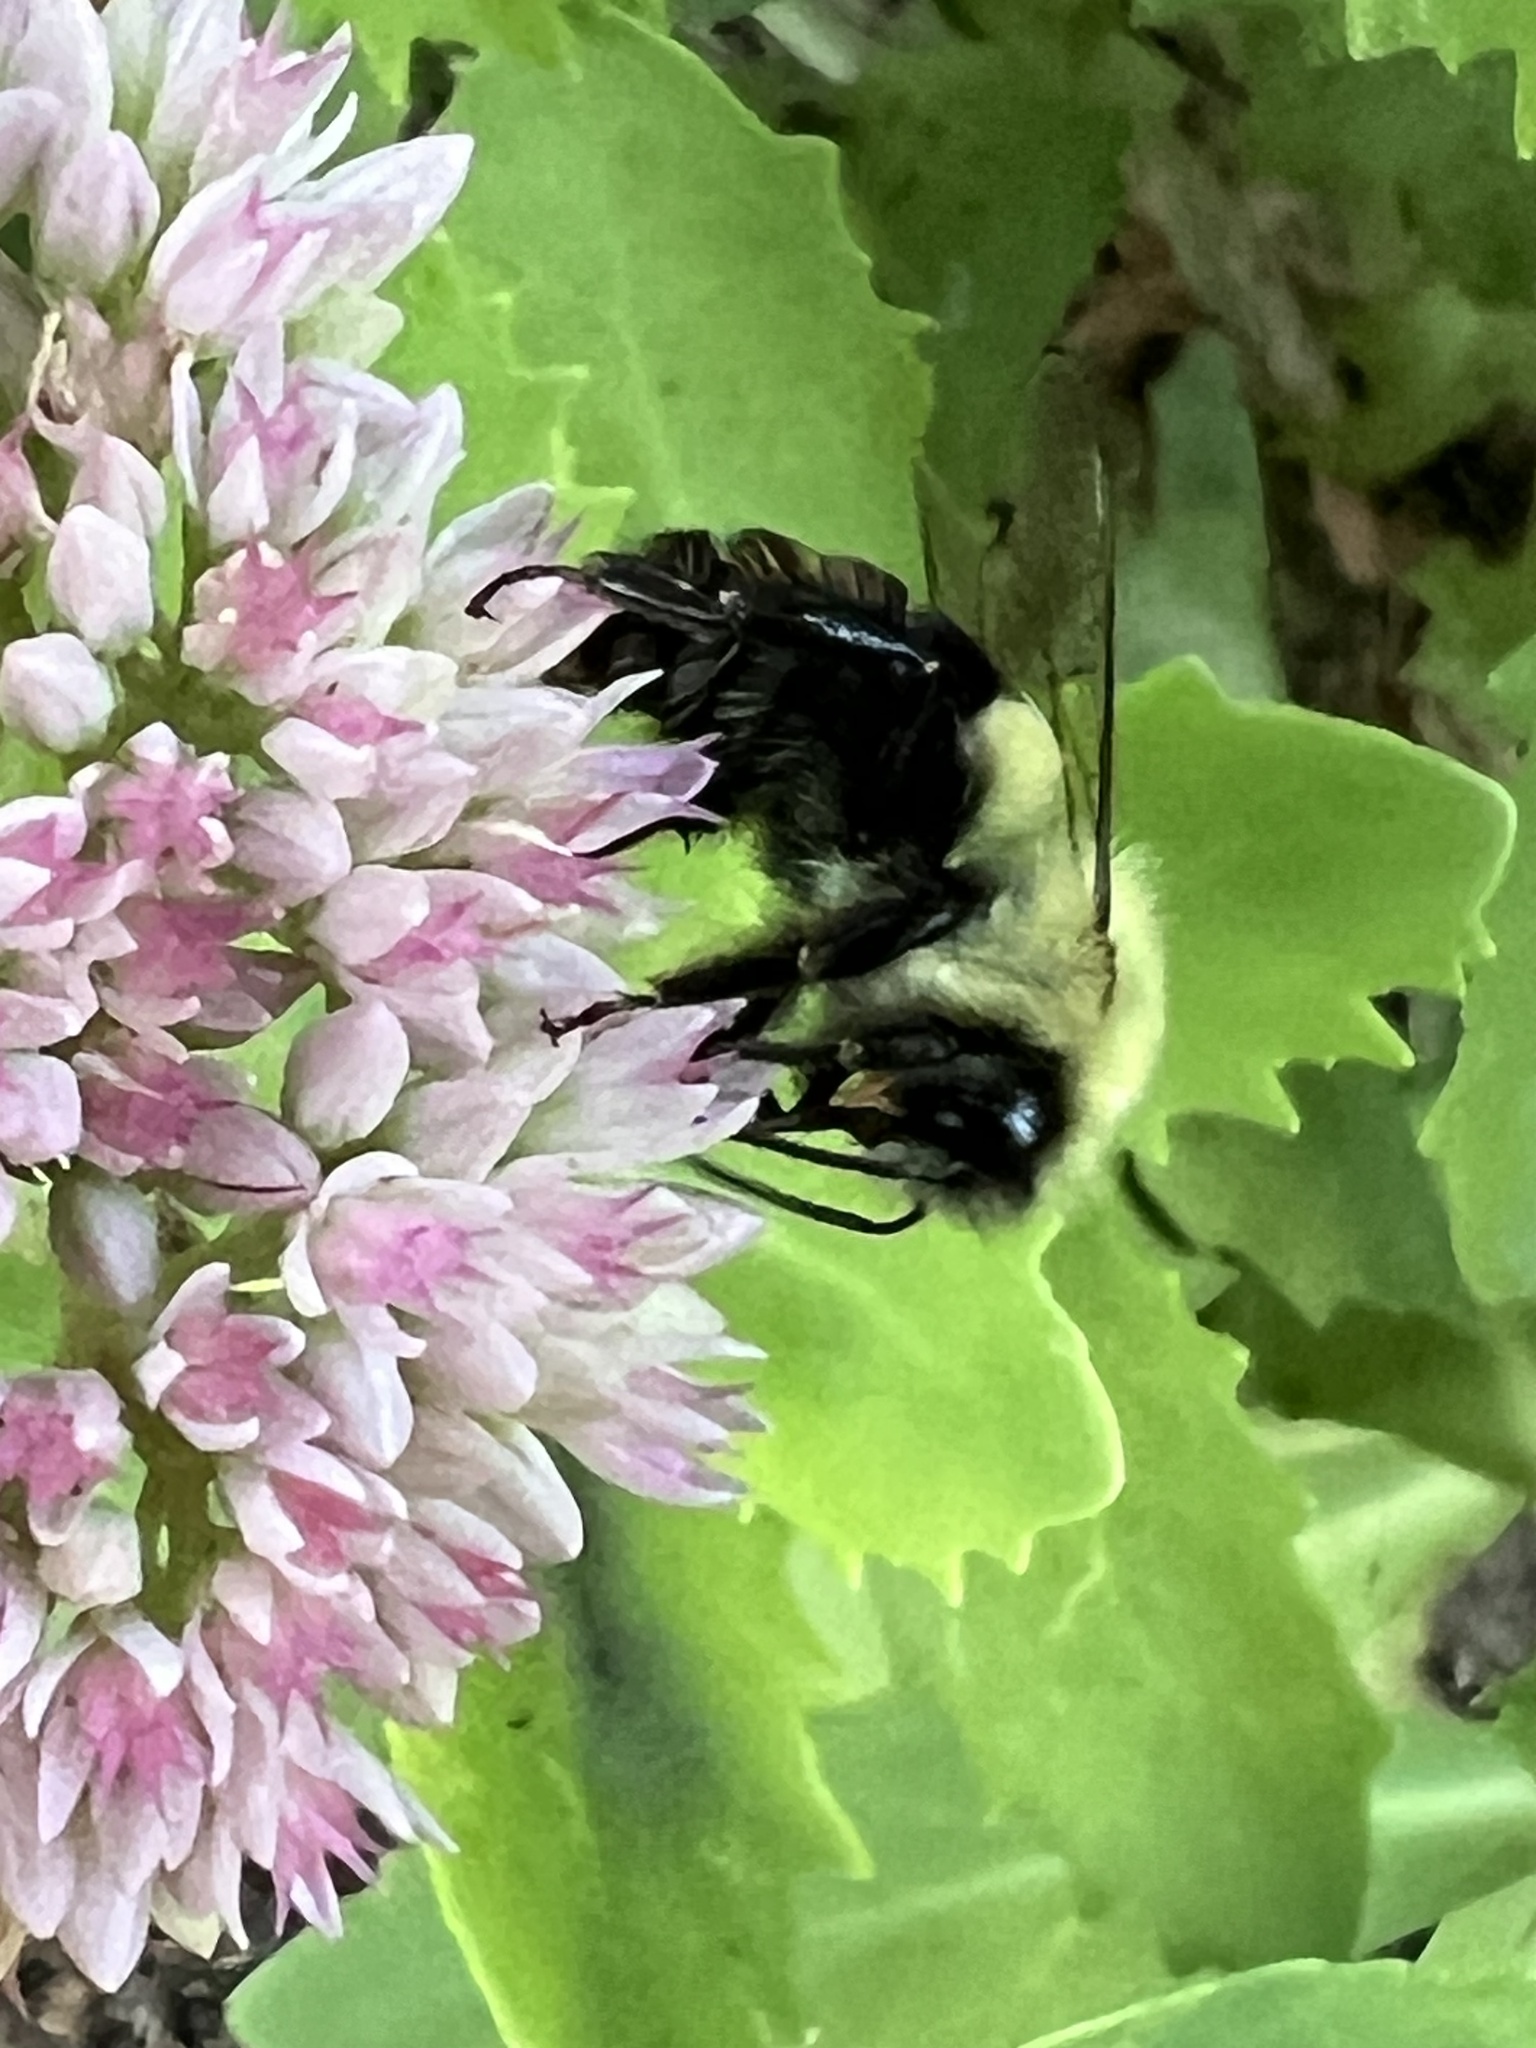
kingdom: Animalia
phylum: Arthropoda
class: Insecta
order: Hymenoptera
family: Apidae
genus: Bombus
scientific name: Bombus impatiens
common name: Common eastern bumble bee
